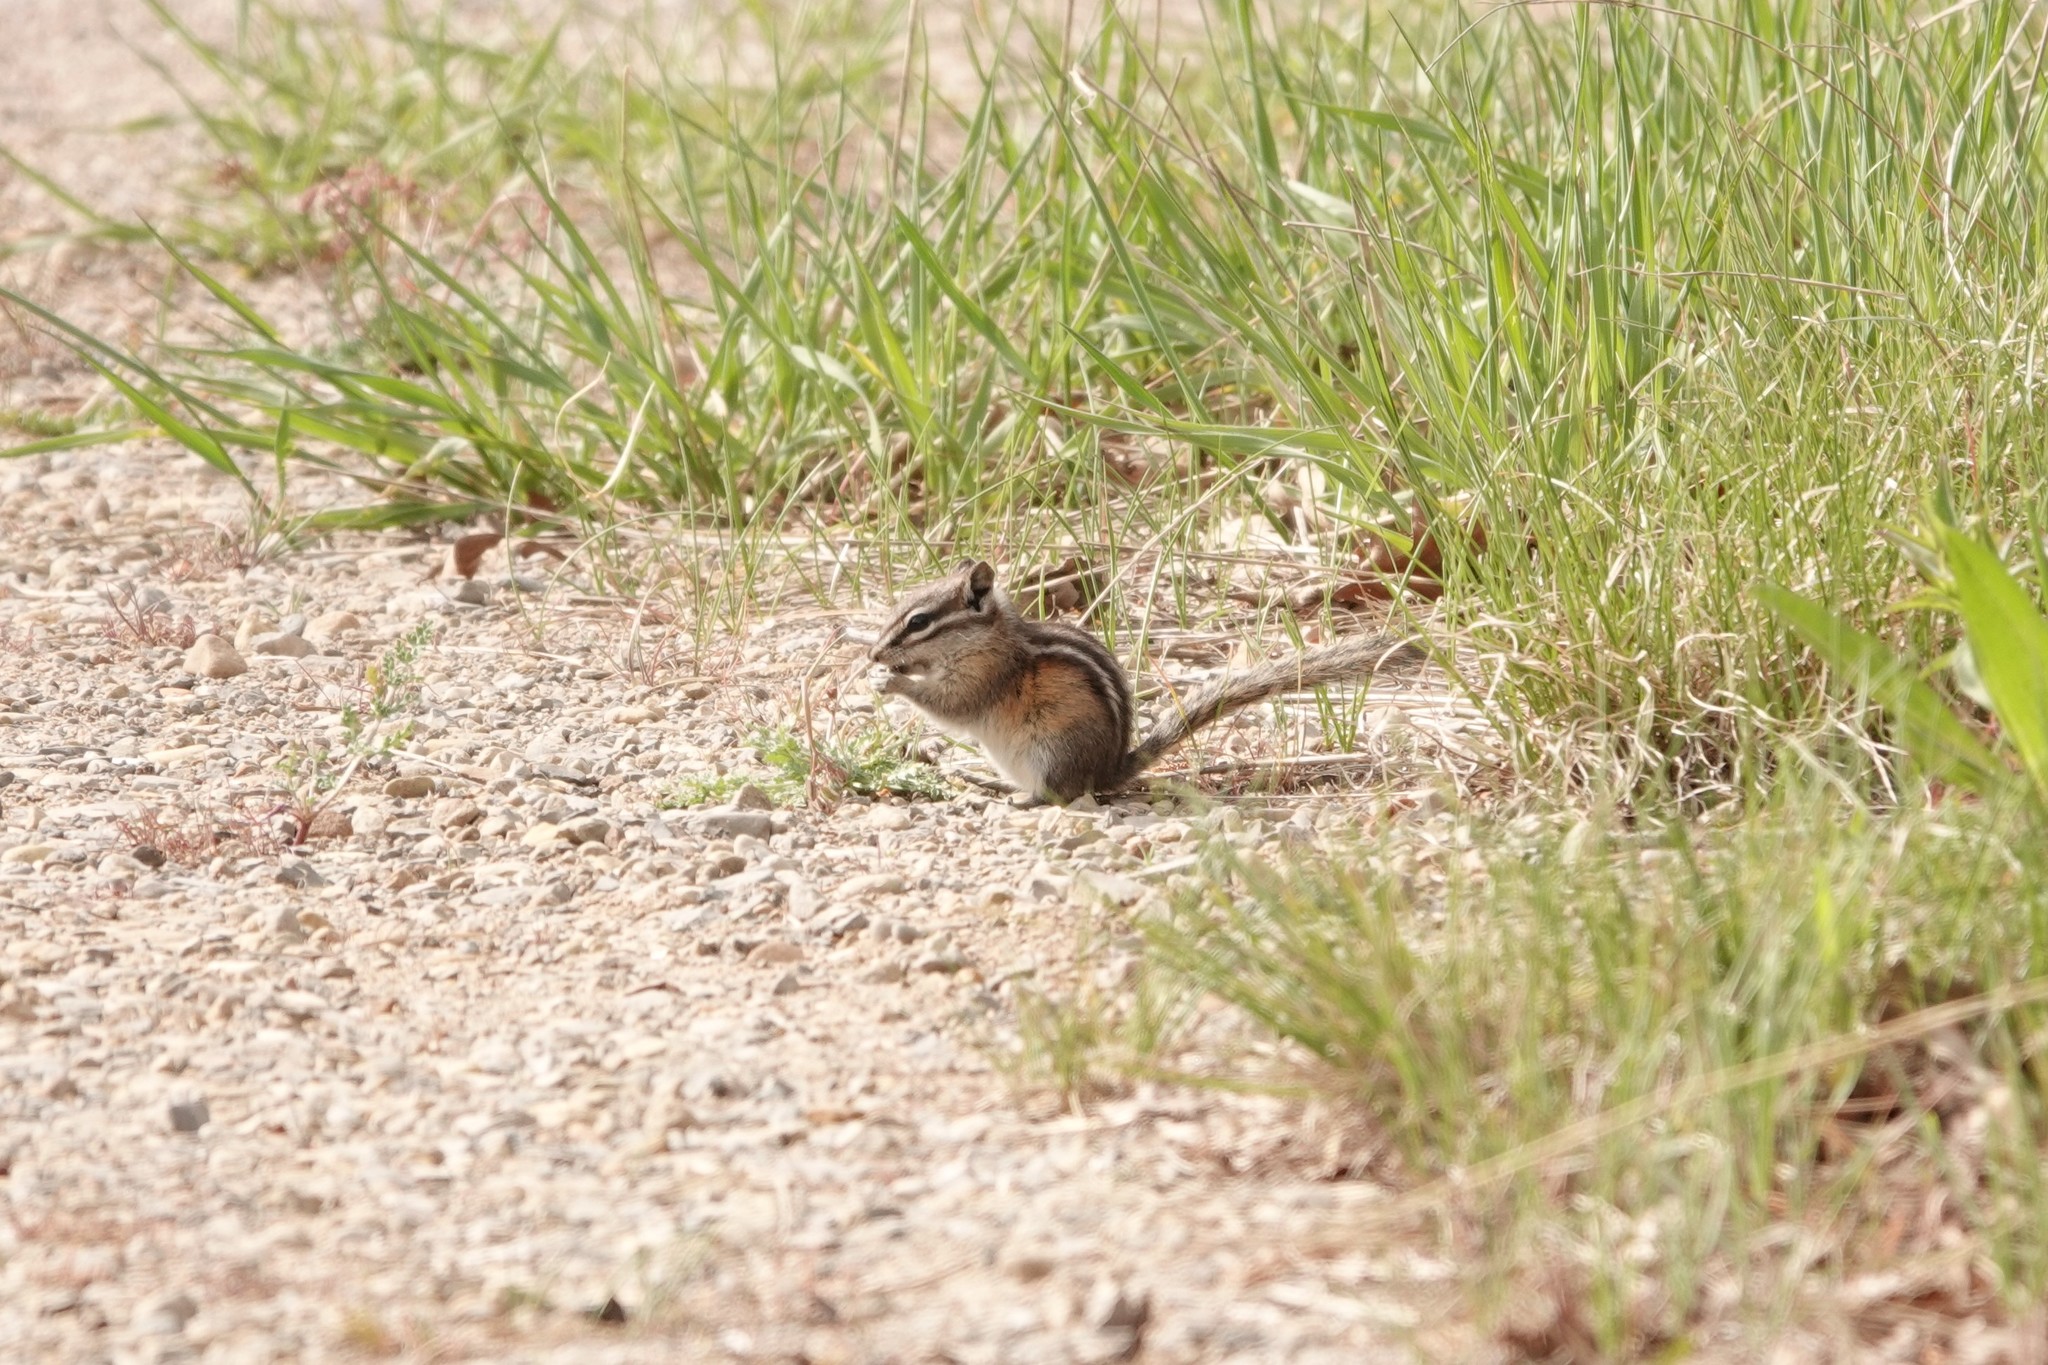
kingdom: Animalia
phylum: Chordata
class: Mammalia
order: Rodentia
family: Sciuridae
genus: Tamias
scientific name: Tamias minimus
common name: Least chipmunk
